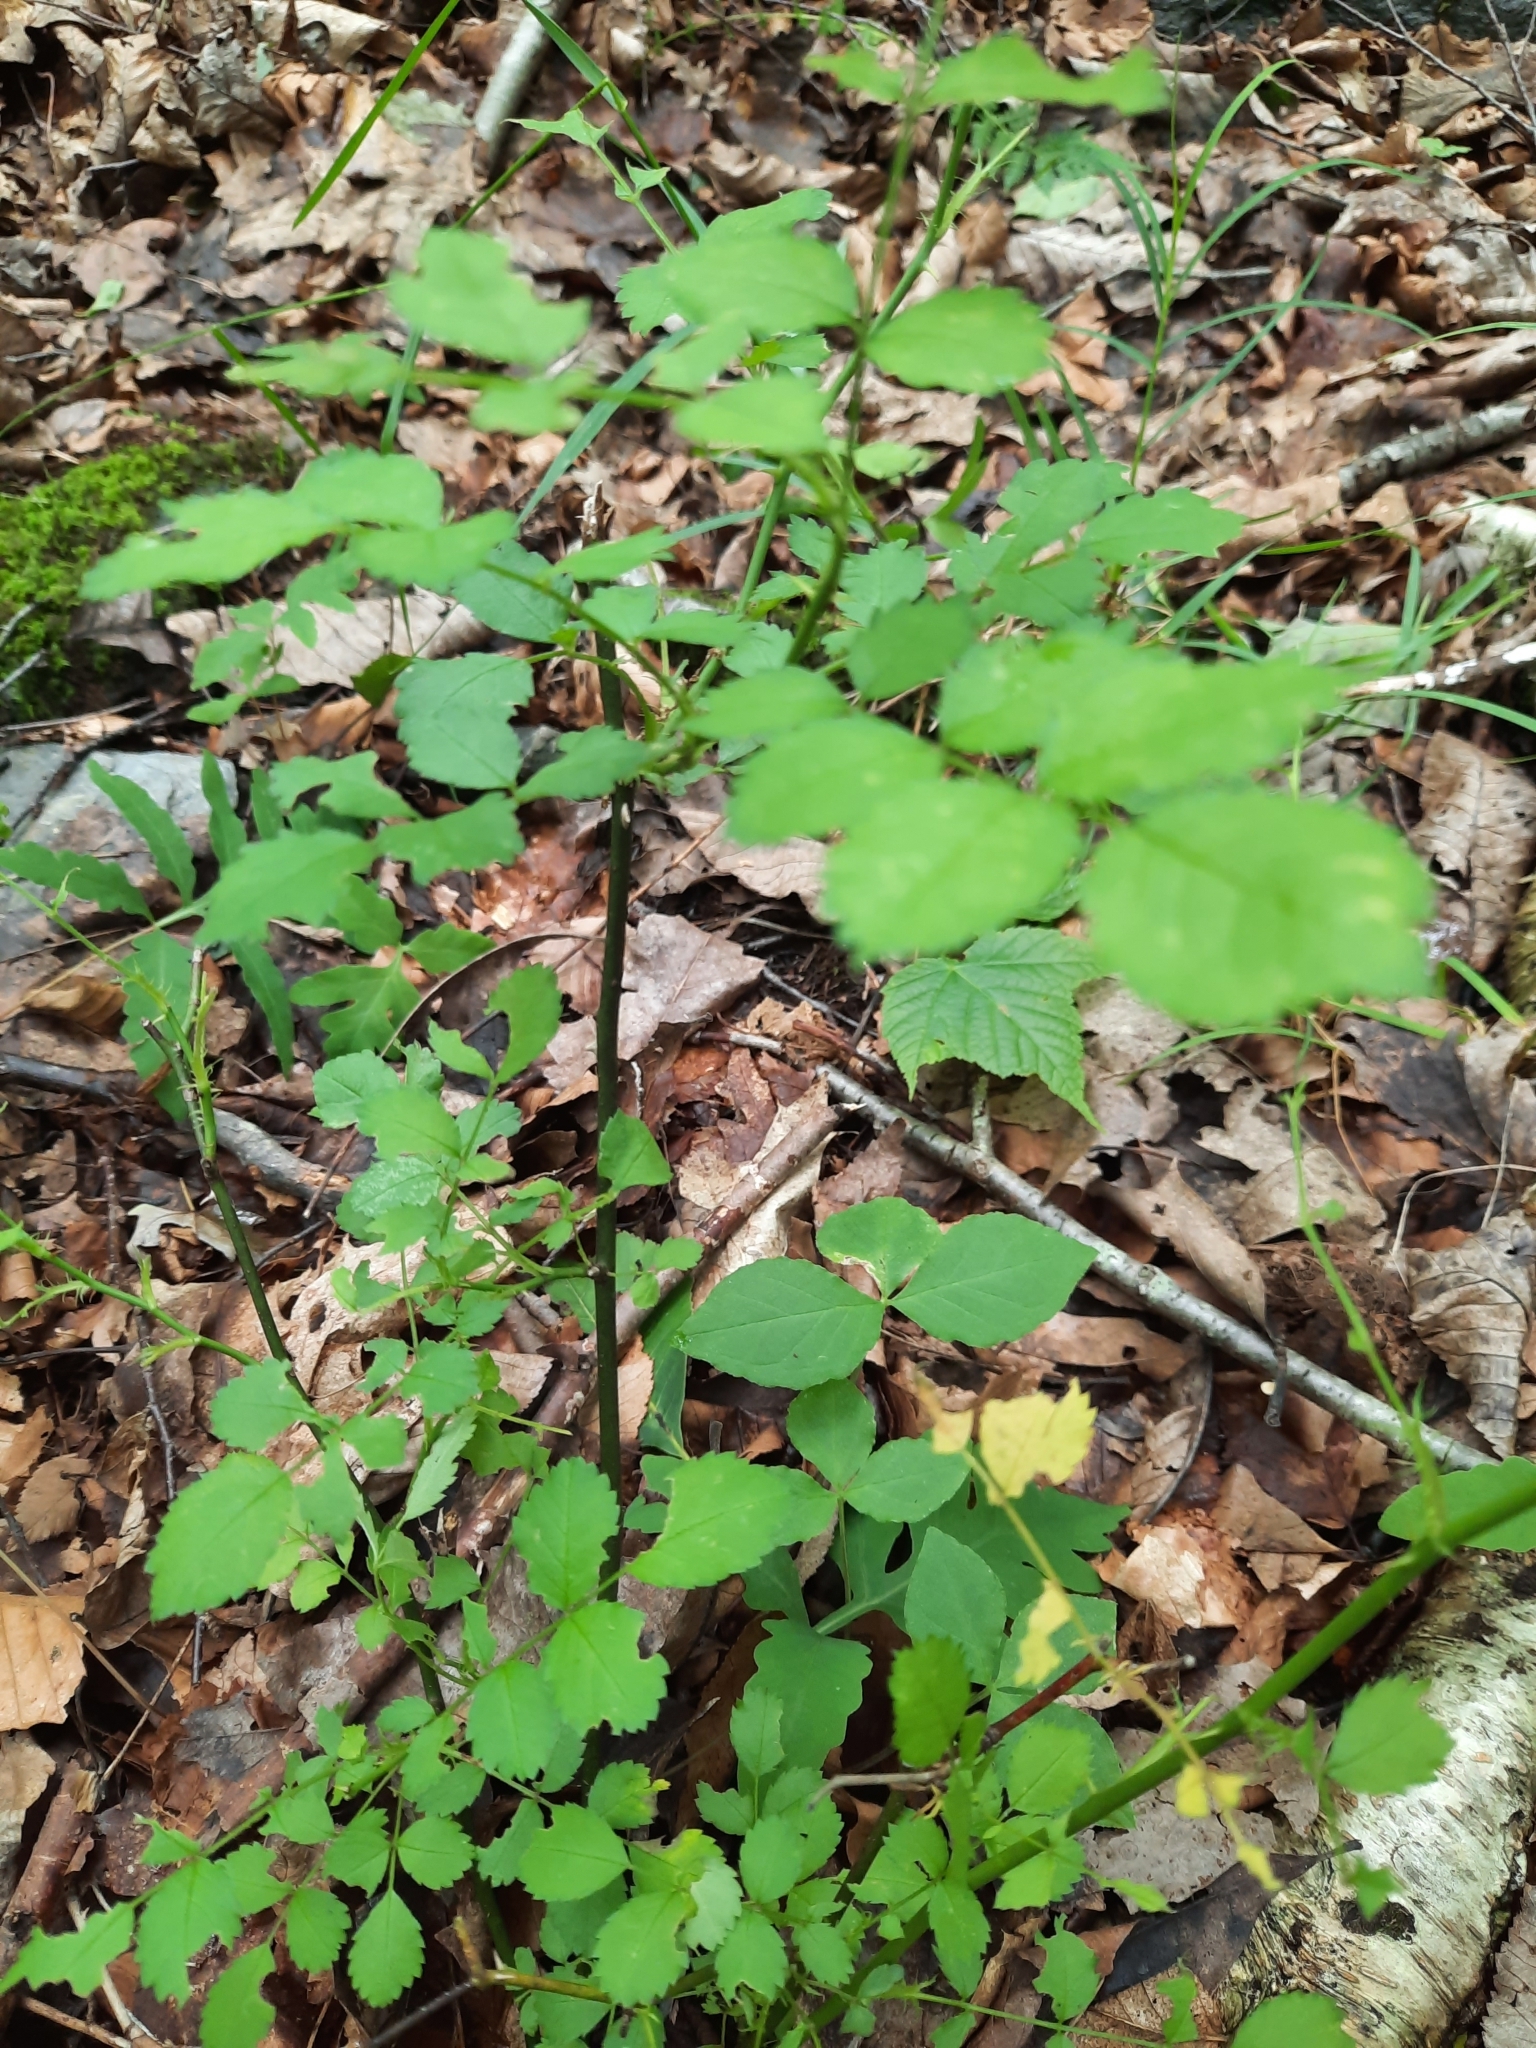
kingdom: Plantae
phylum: Tracheophyta
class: Magnoliopsida
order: Rosales
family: Rosaceae
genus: Rosa
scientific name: Rosa multiflora
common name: Multiflora rose
